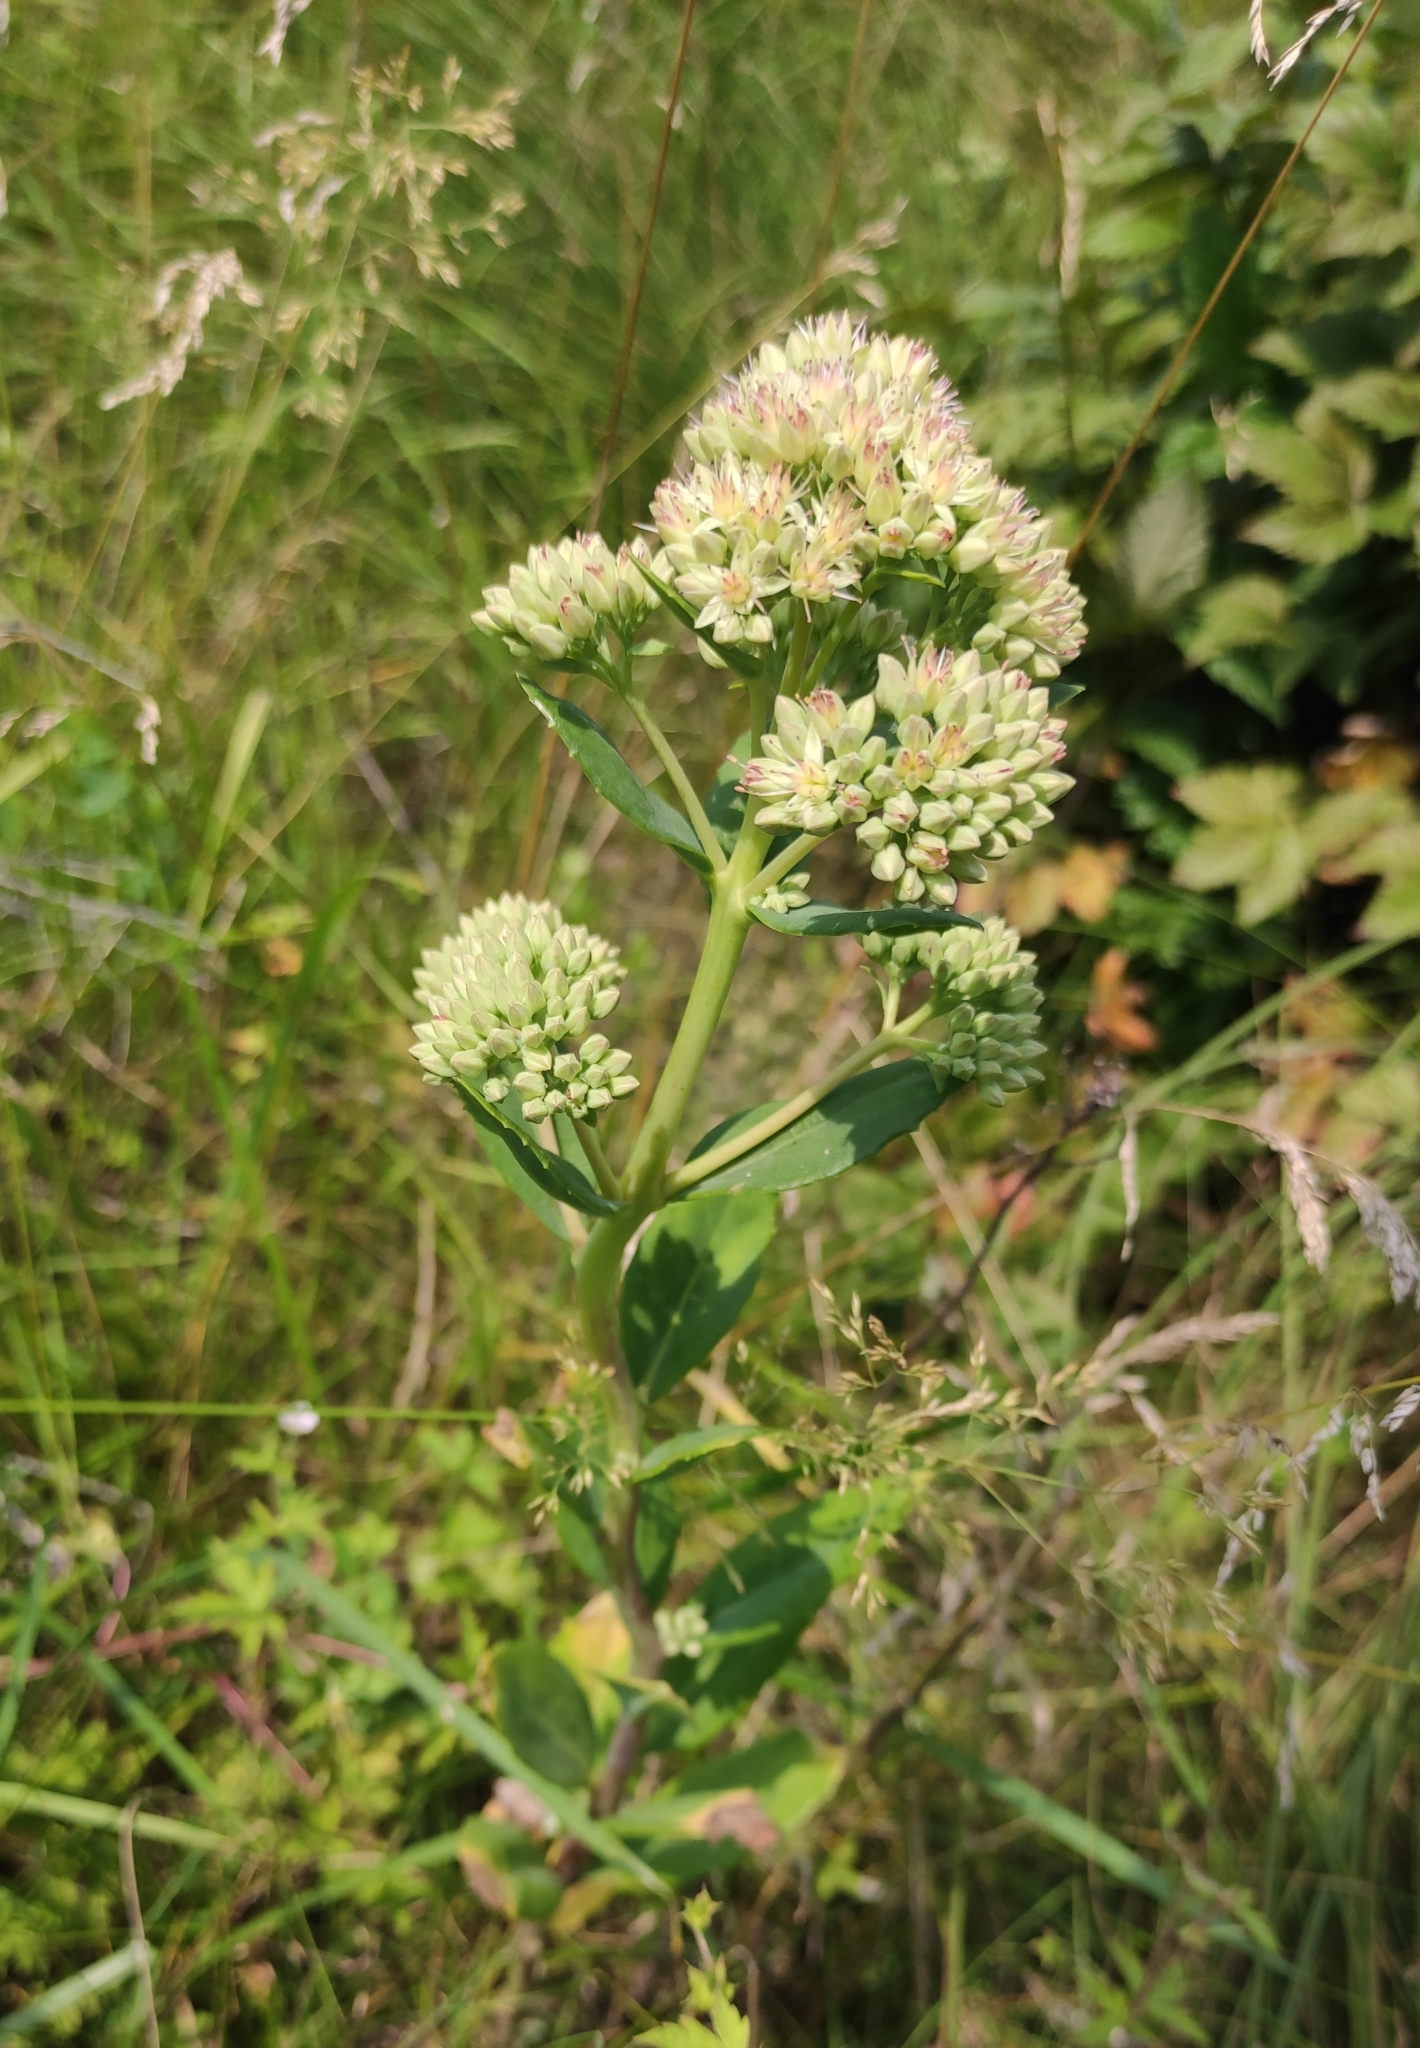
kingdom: Plantae
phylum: Tracheophyta
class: Magnoliopsida
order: Saxifragales
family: Crassulaceae
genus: Hylotelephium
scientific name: Hylotelephium telephium
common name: Live-forever
